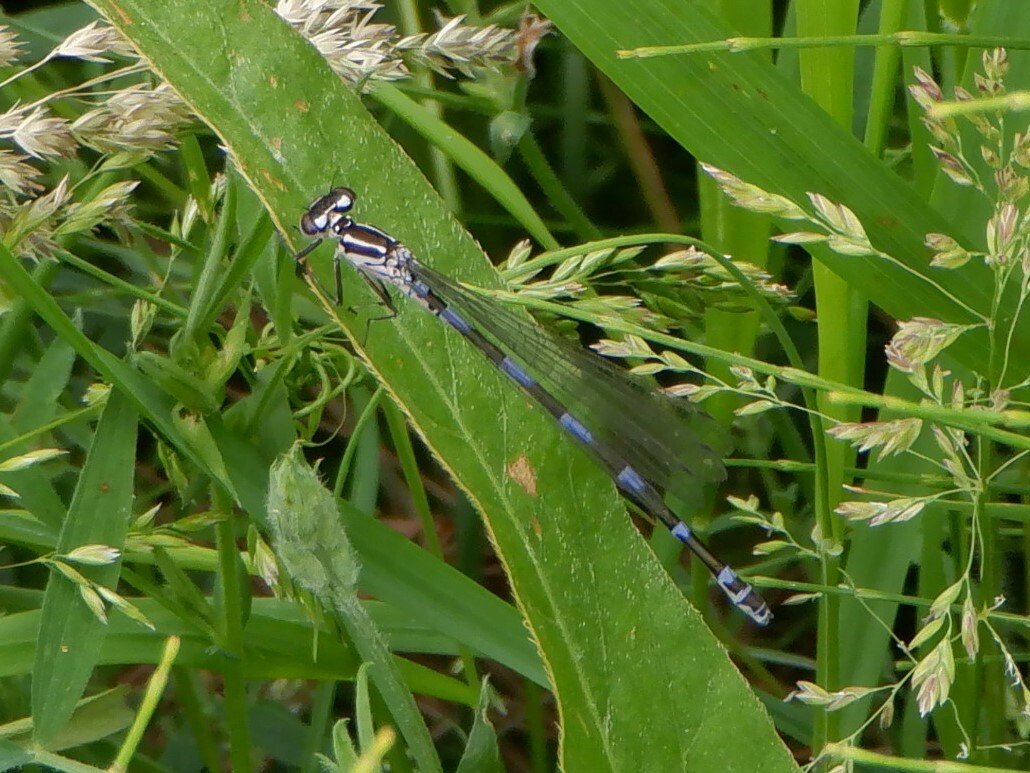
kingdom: Animalia
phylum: Arthropoda
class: Insecta
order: Odonata
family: Coenagrionidae
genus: Coenagrion
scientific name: Coenagrion pulchellum
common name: Variable bluet
